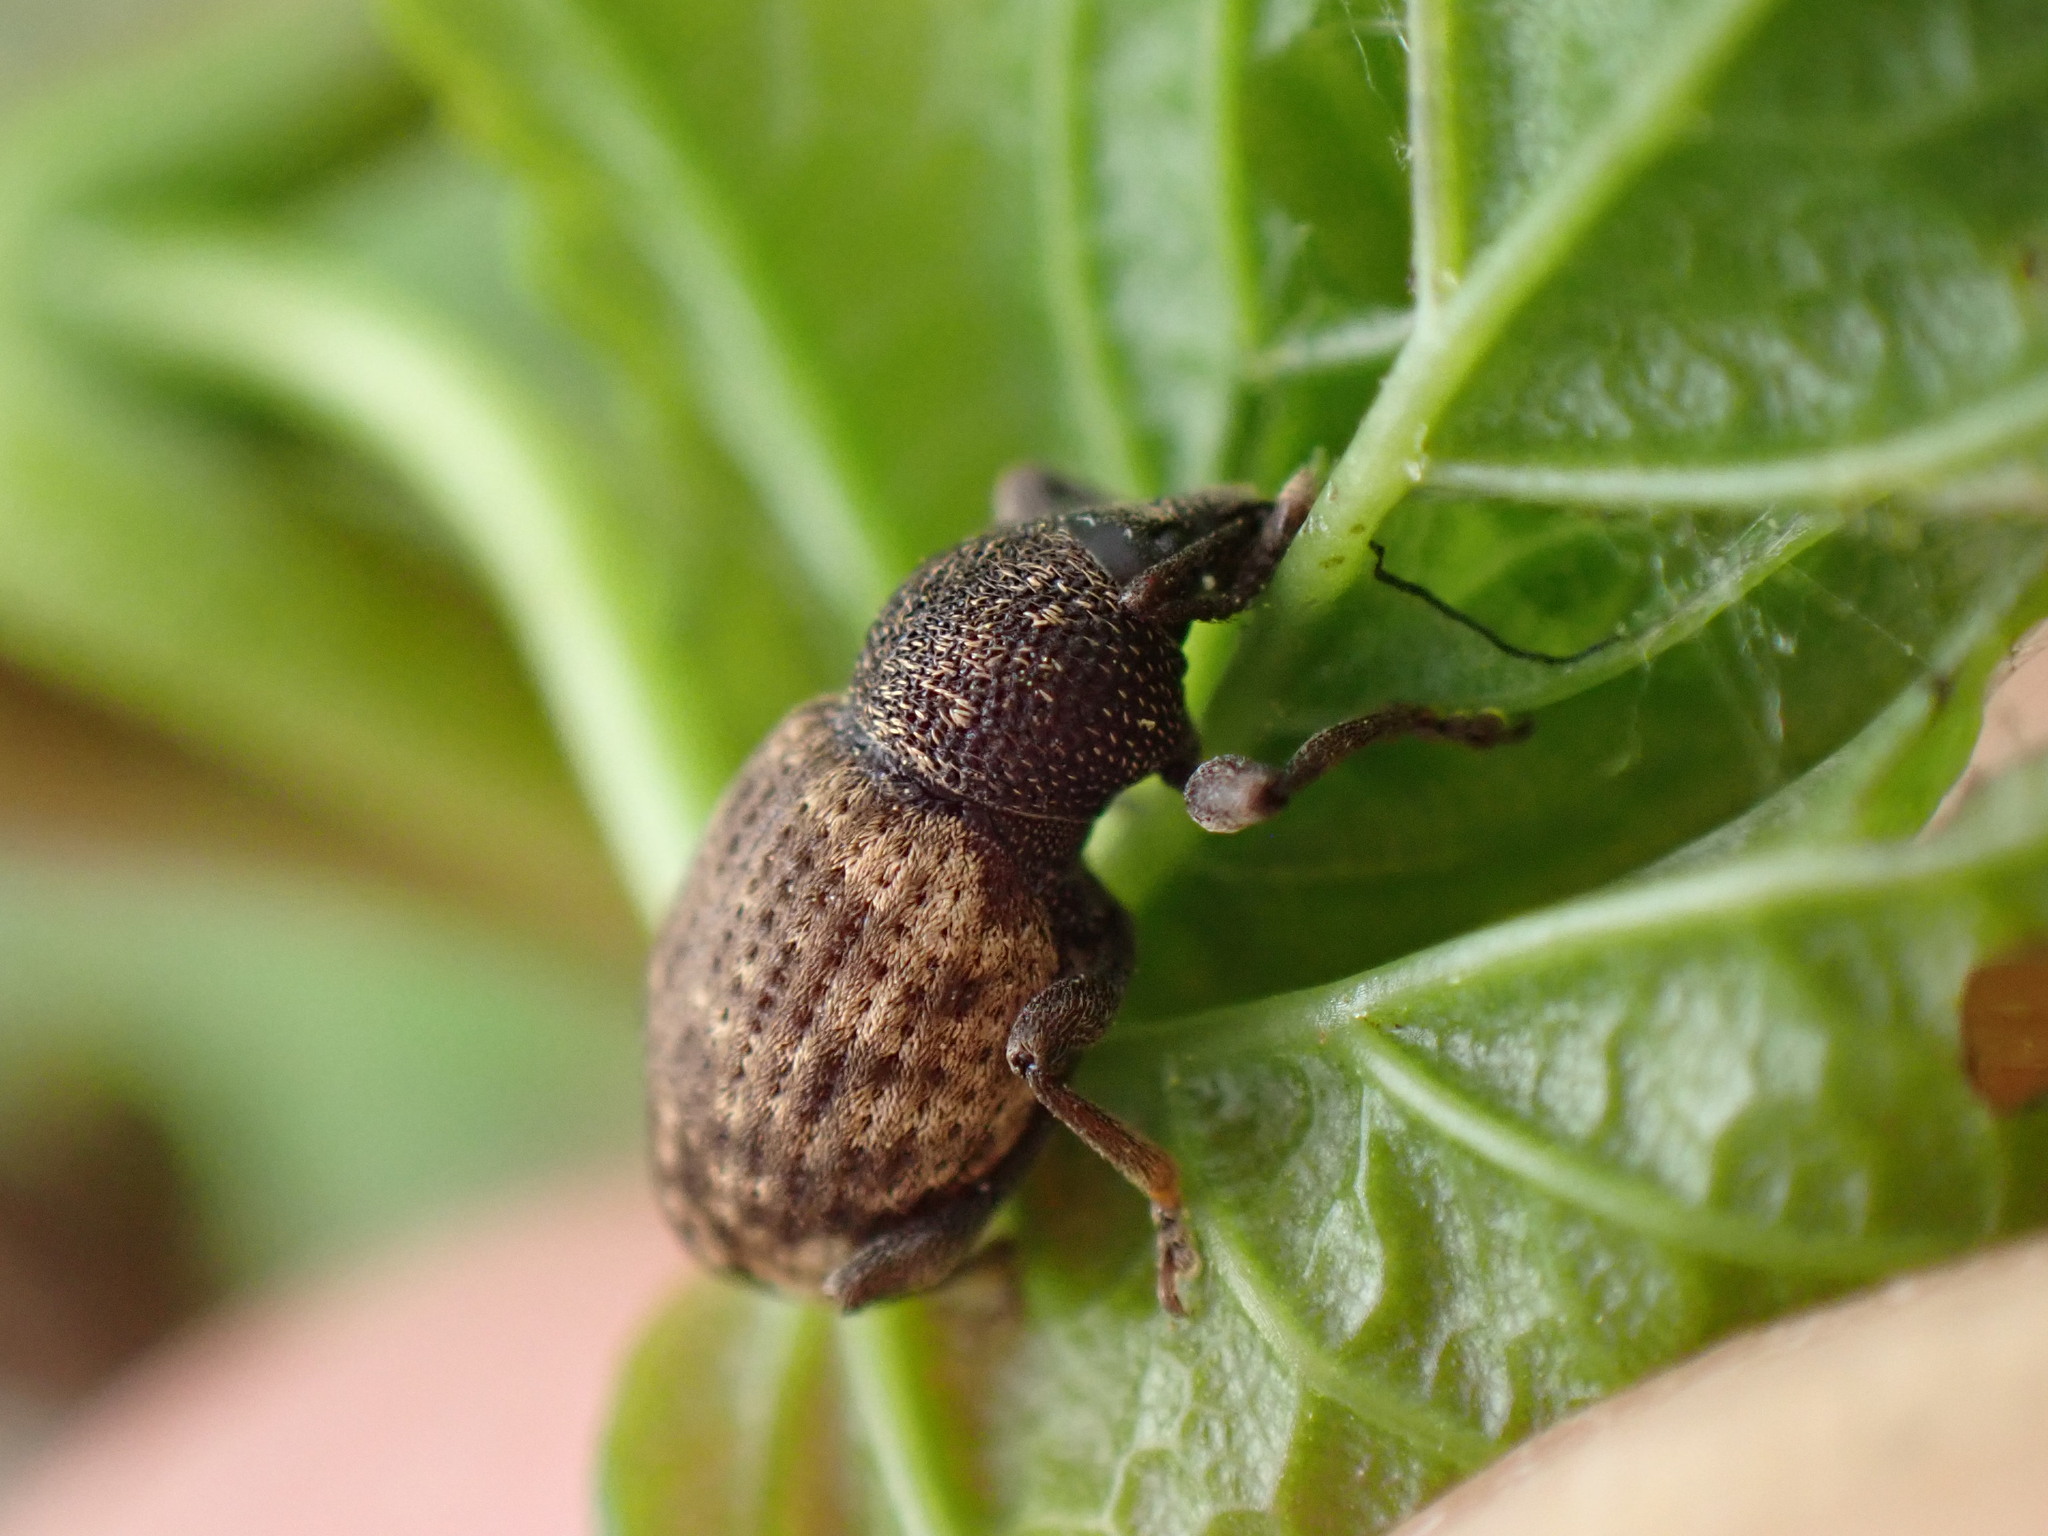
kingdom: Animalia
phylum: Arthropoda
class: Insecta
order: Coleoptera
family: Curculionidae
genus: Otiorhynchus
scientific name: Otiorhynchus raucus
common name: Weevil
